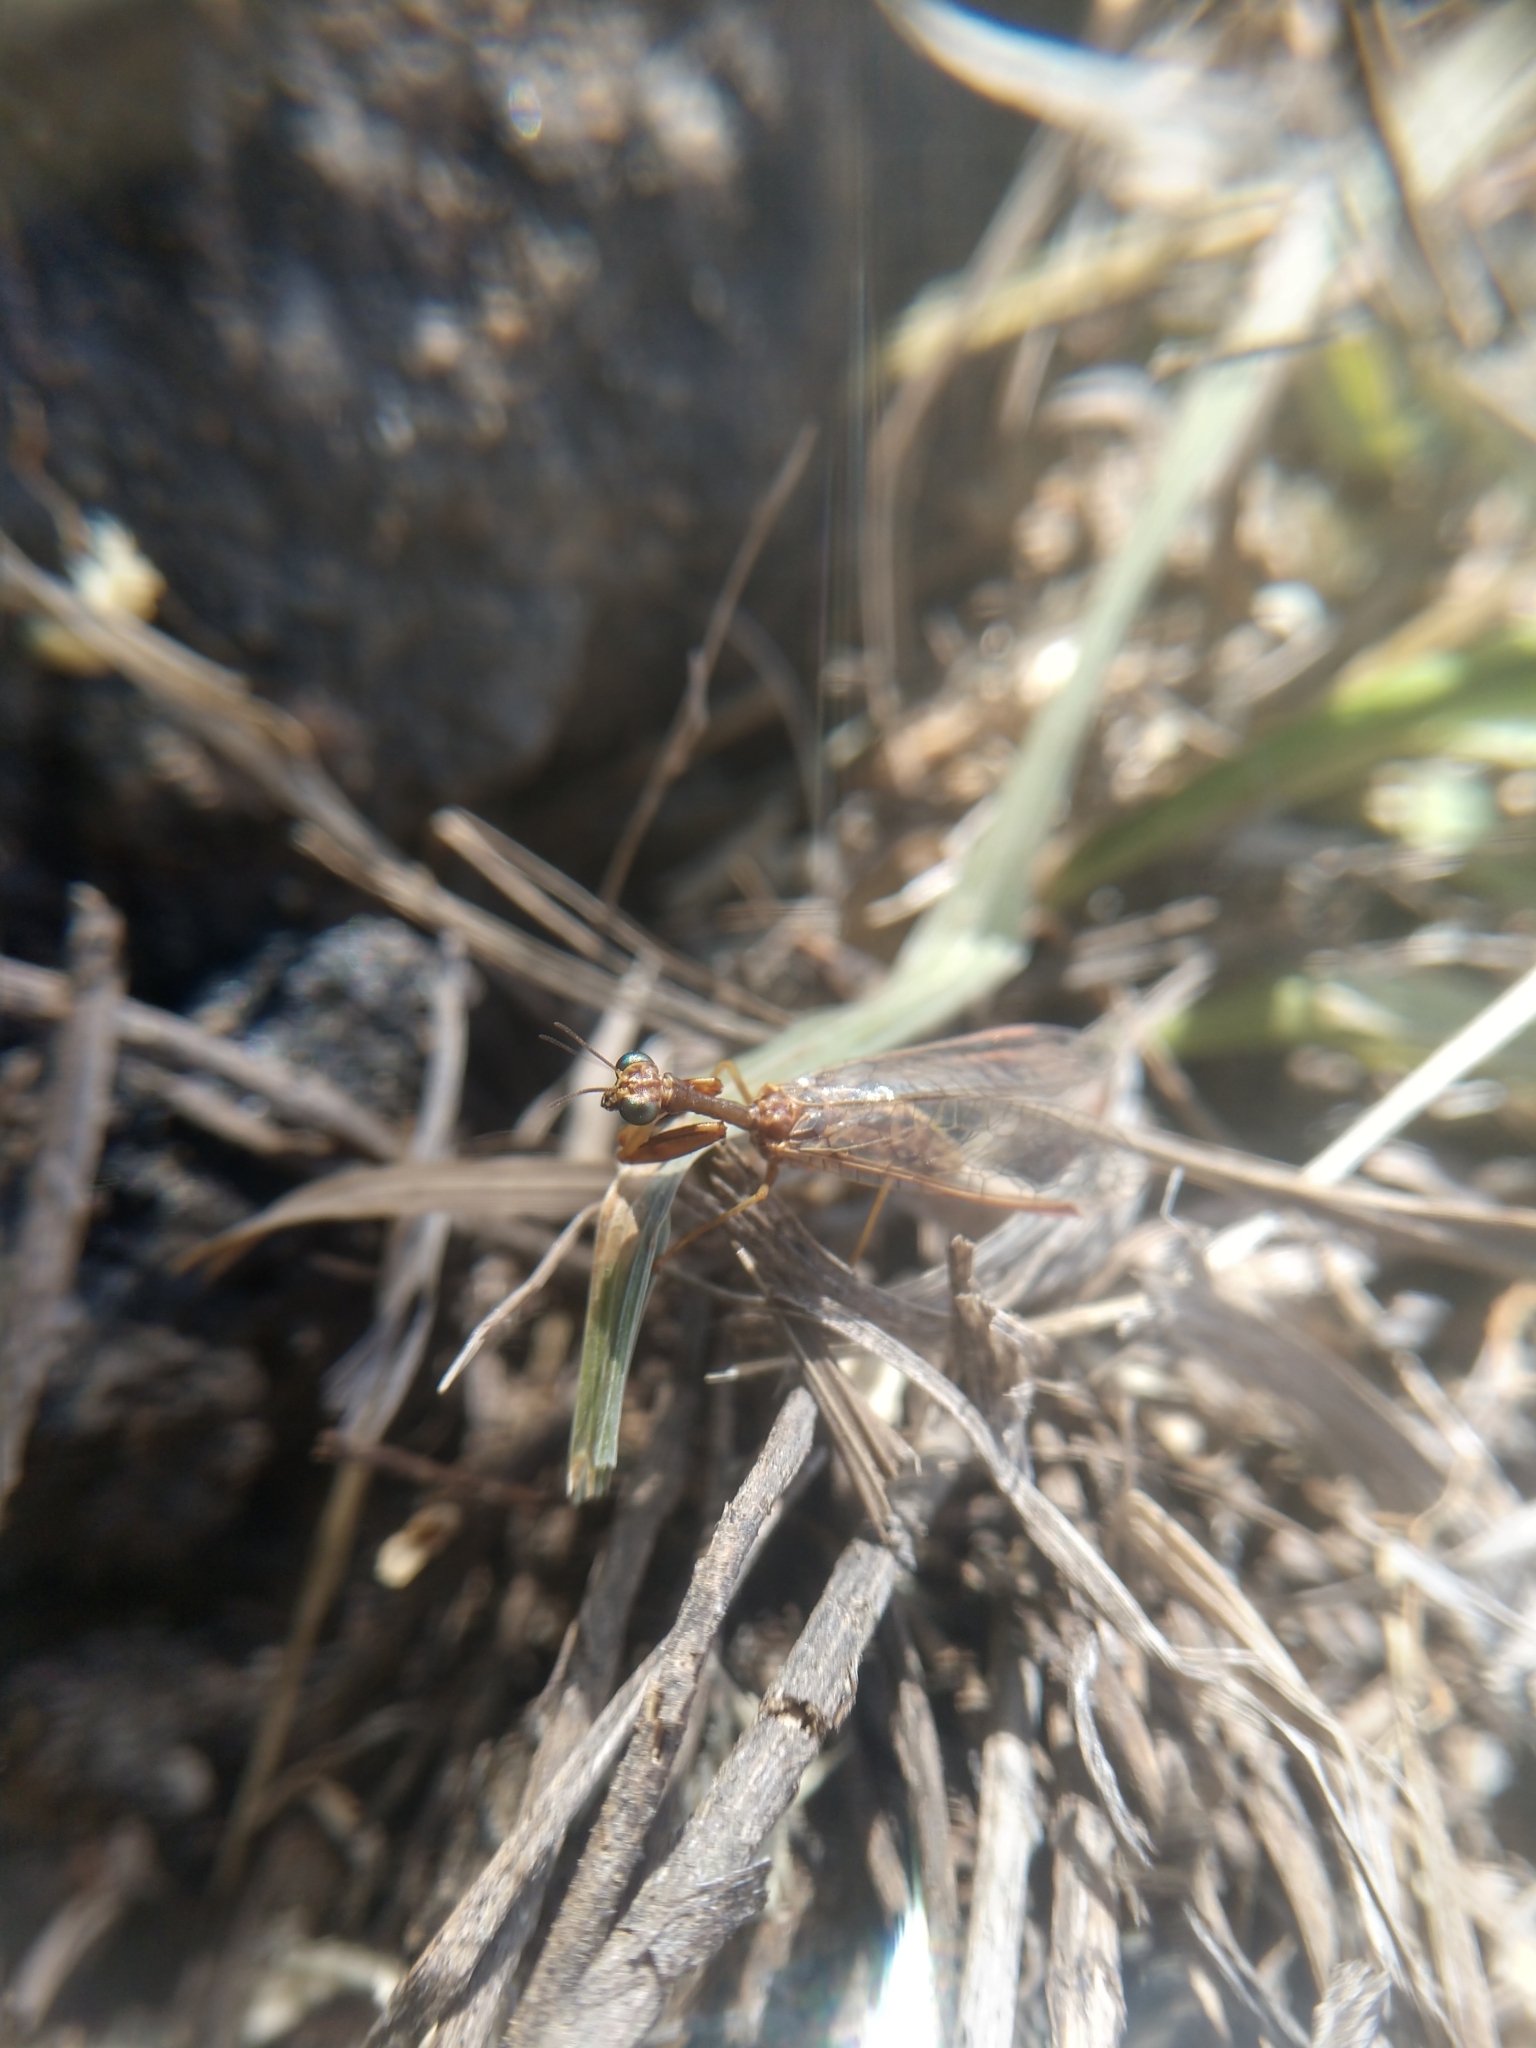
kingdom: Animalia
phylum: Arthropoda
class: Insecta
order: Neuroptera
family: Mantispidae
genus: Dicromantispa
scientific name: Dicromantispa sayi
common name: Say's mantidfly
